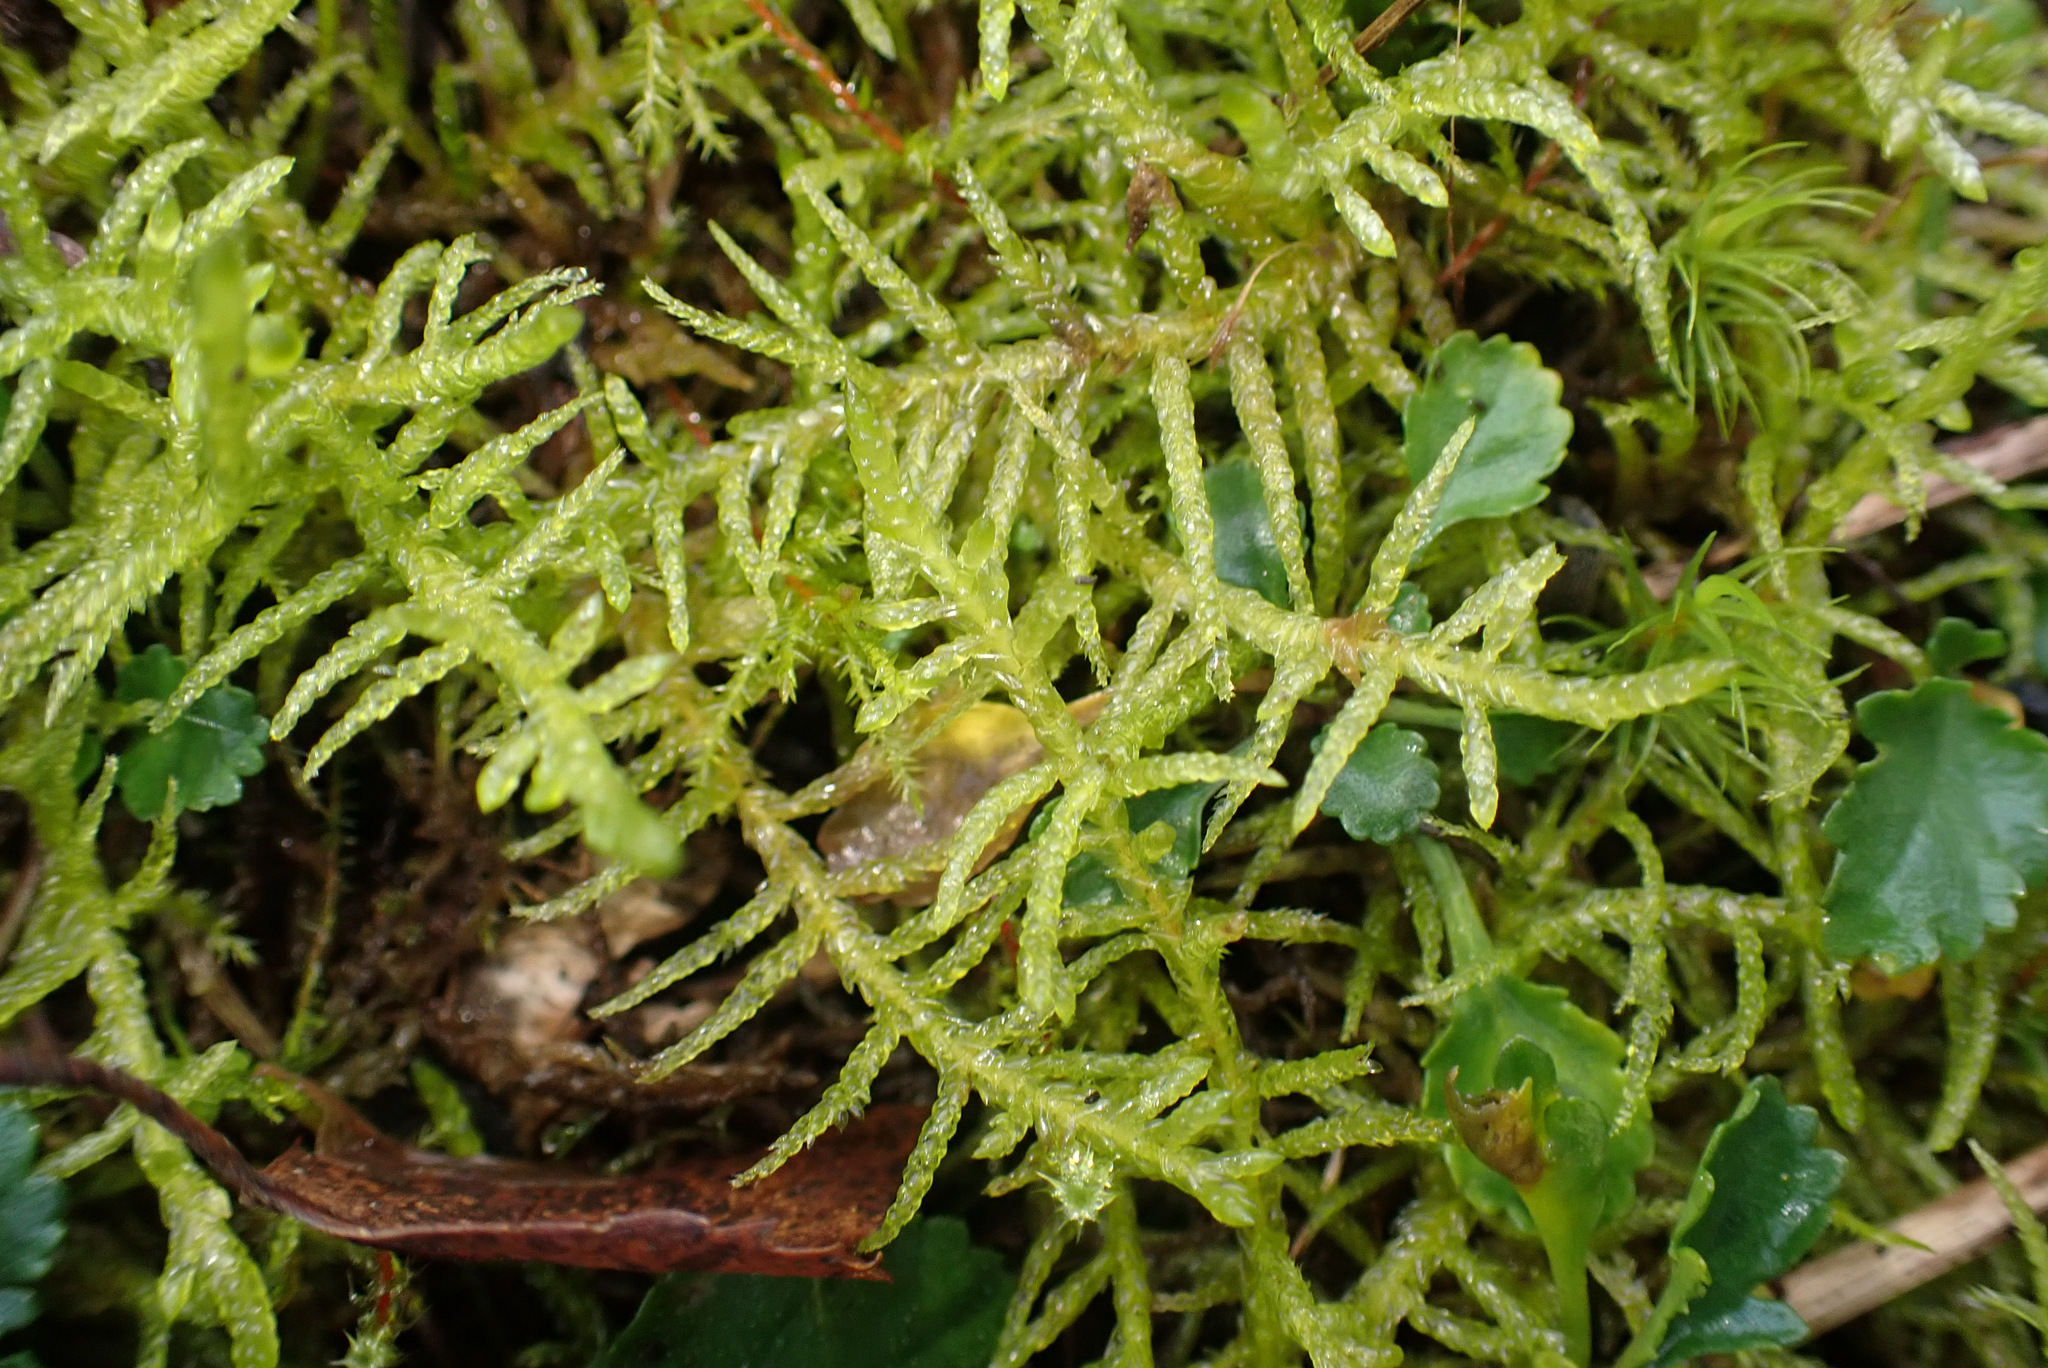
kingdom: Plantae
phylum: Bryophyta
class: Bryopsida
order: Hypnales
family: Brachytheciaceae
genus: Pseudoscleropodium
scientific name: Pseudoscleropodium purum
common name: Neat feather-moss
